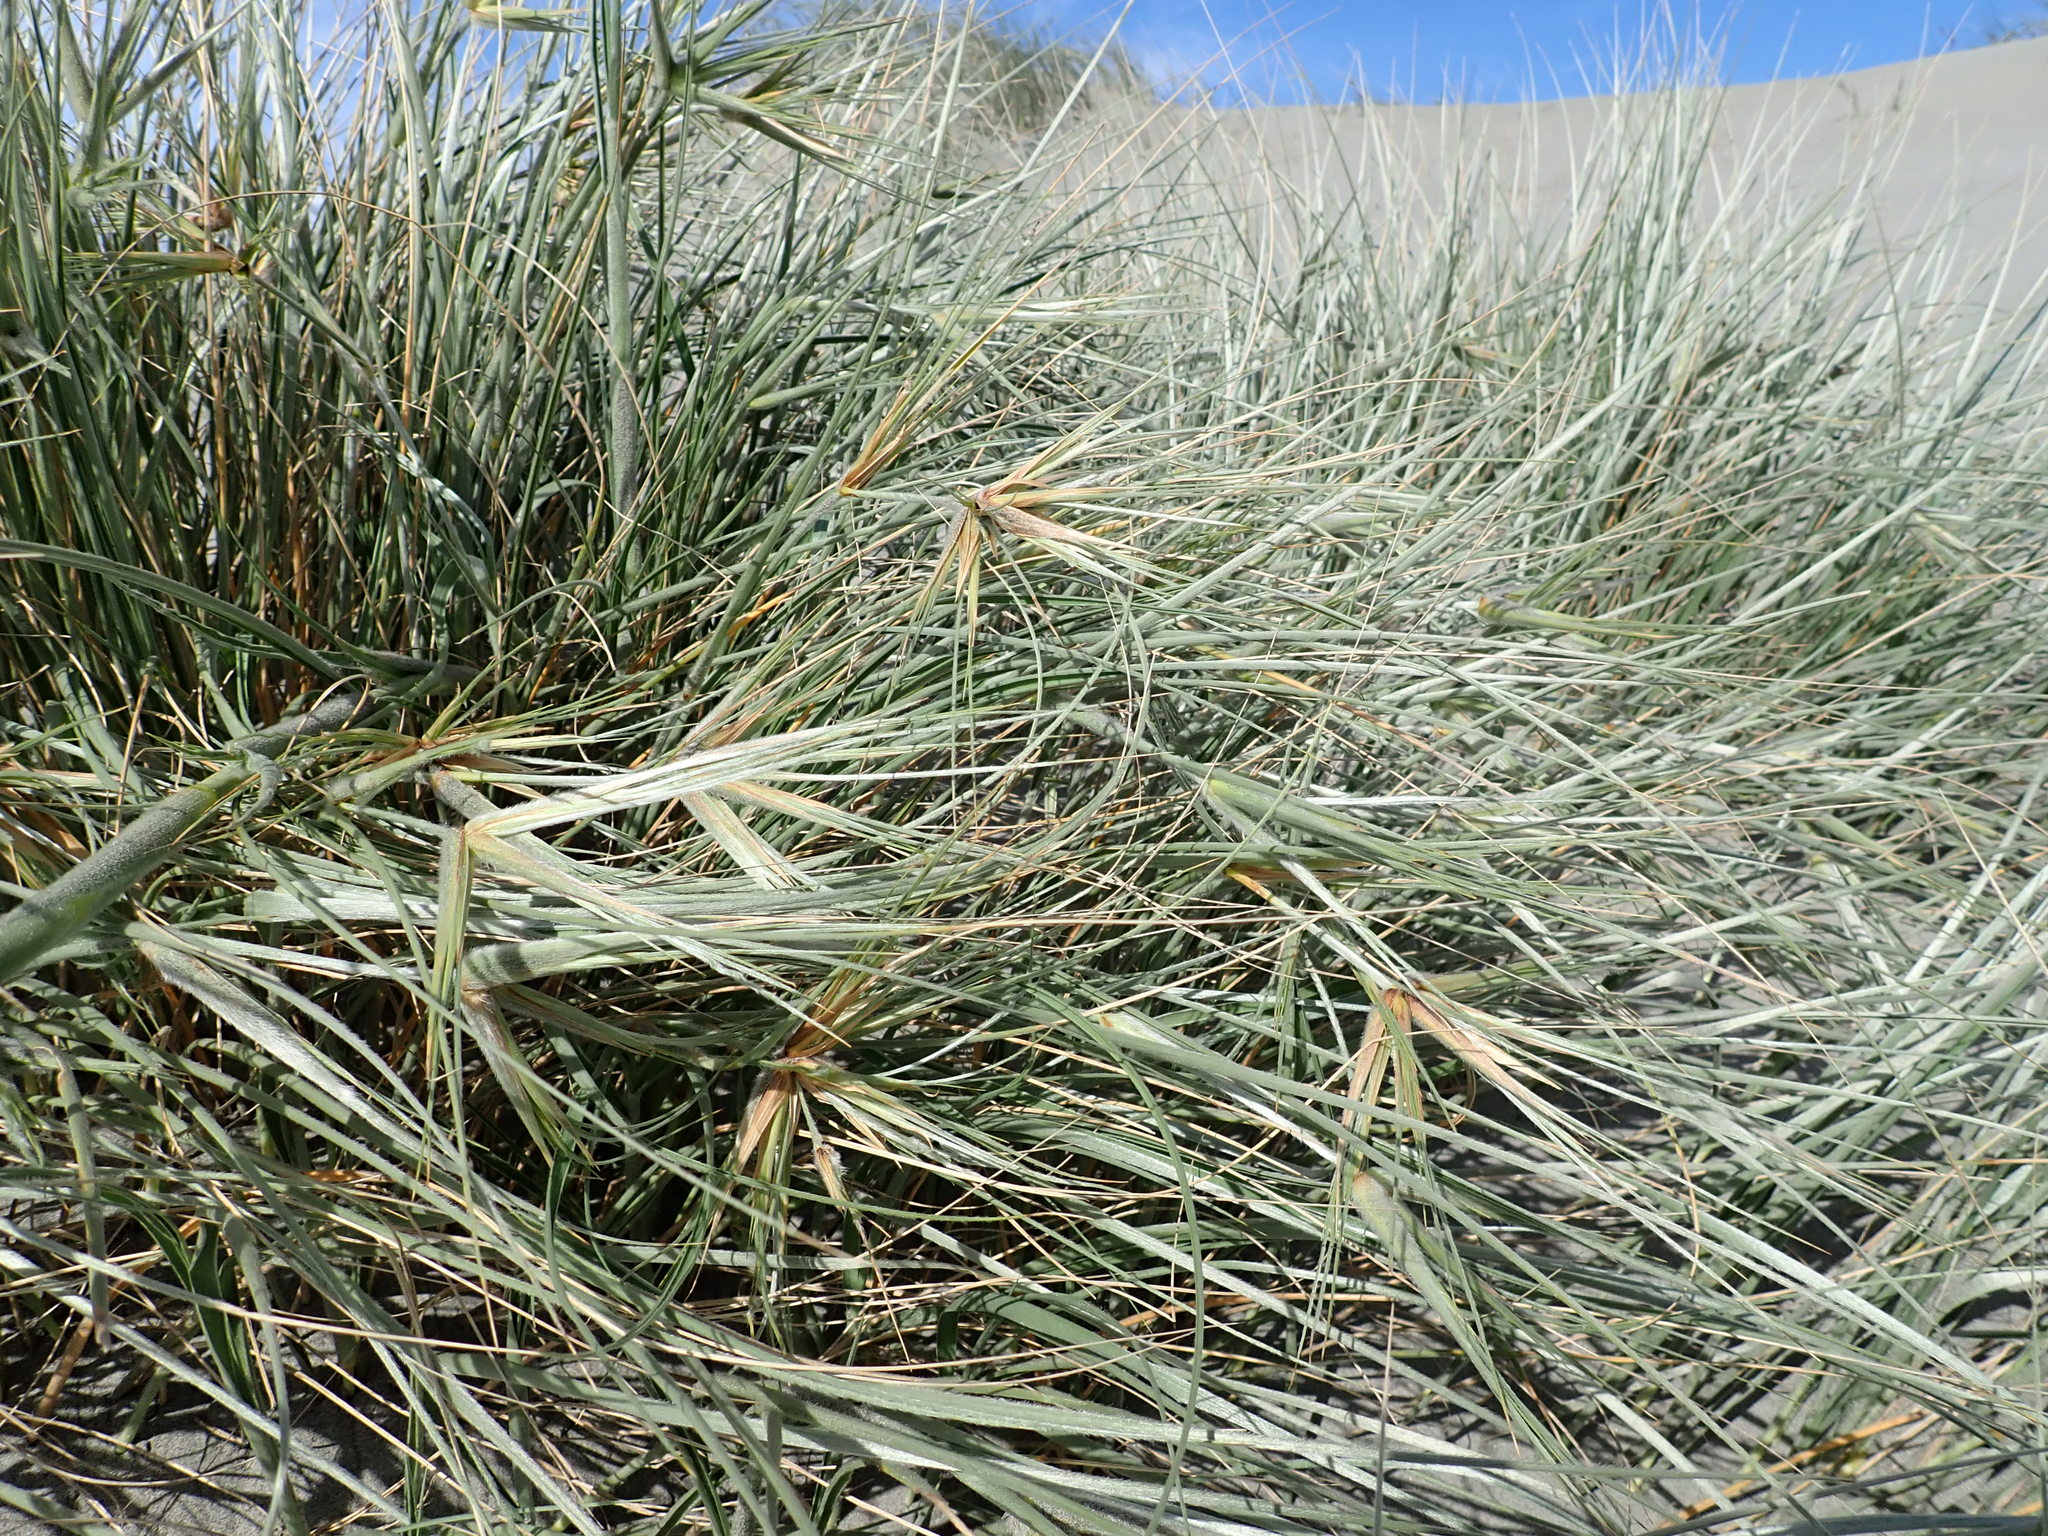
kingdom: Plantae
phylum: Tracheophyta
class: Liliopsida
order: Poales
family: Poaceae
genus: Spinifex
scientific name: Spinifex sericeus
